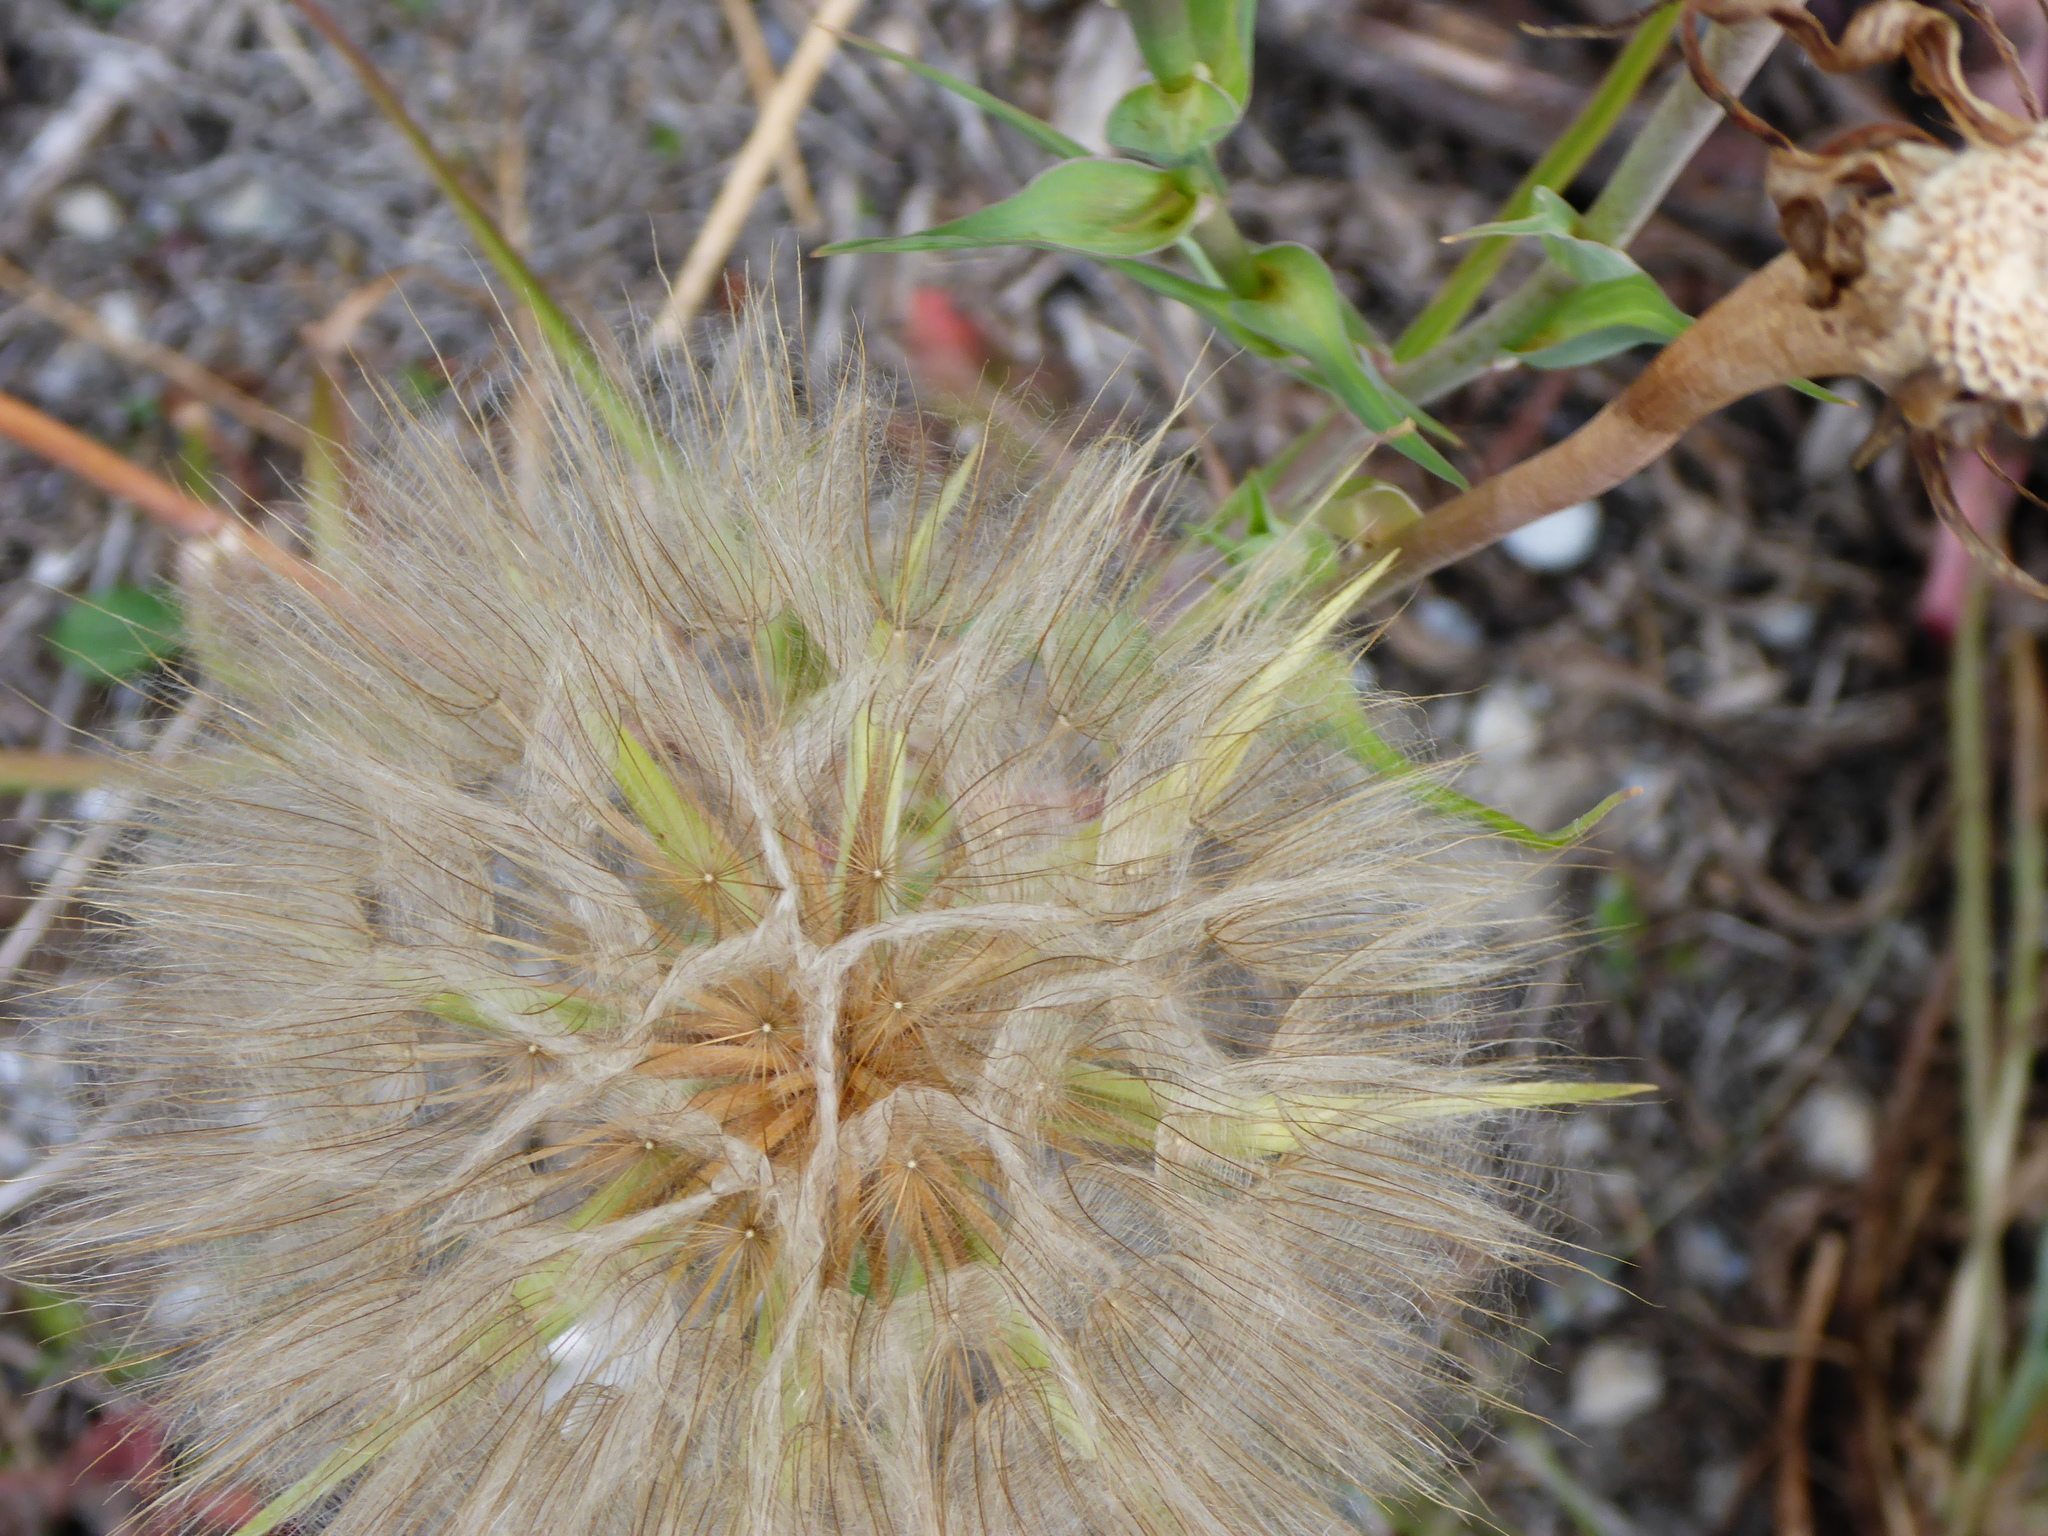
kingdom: Plantae
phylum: Tracheophyta
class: Magnoliopsida
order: Asterales
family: Asteraceae
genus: Tragopogon
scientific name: Tragopogon dubius
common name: Yellow salsify
